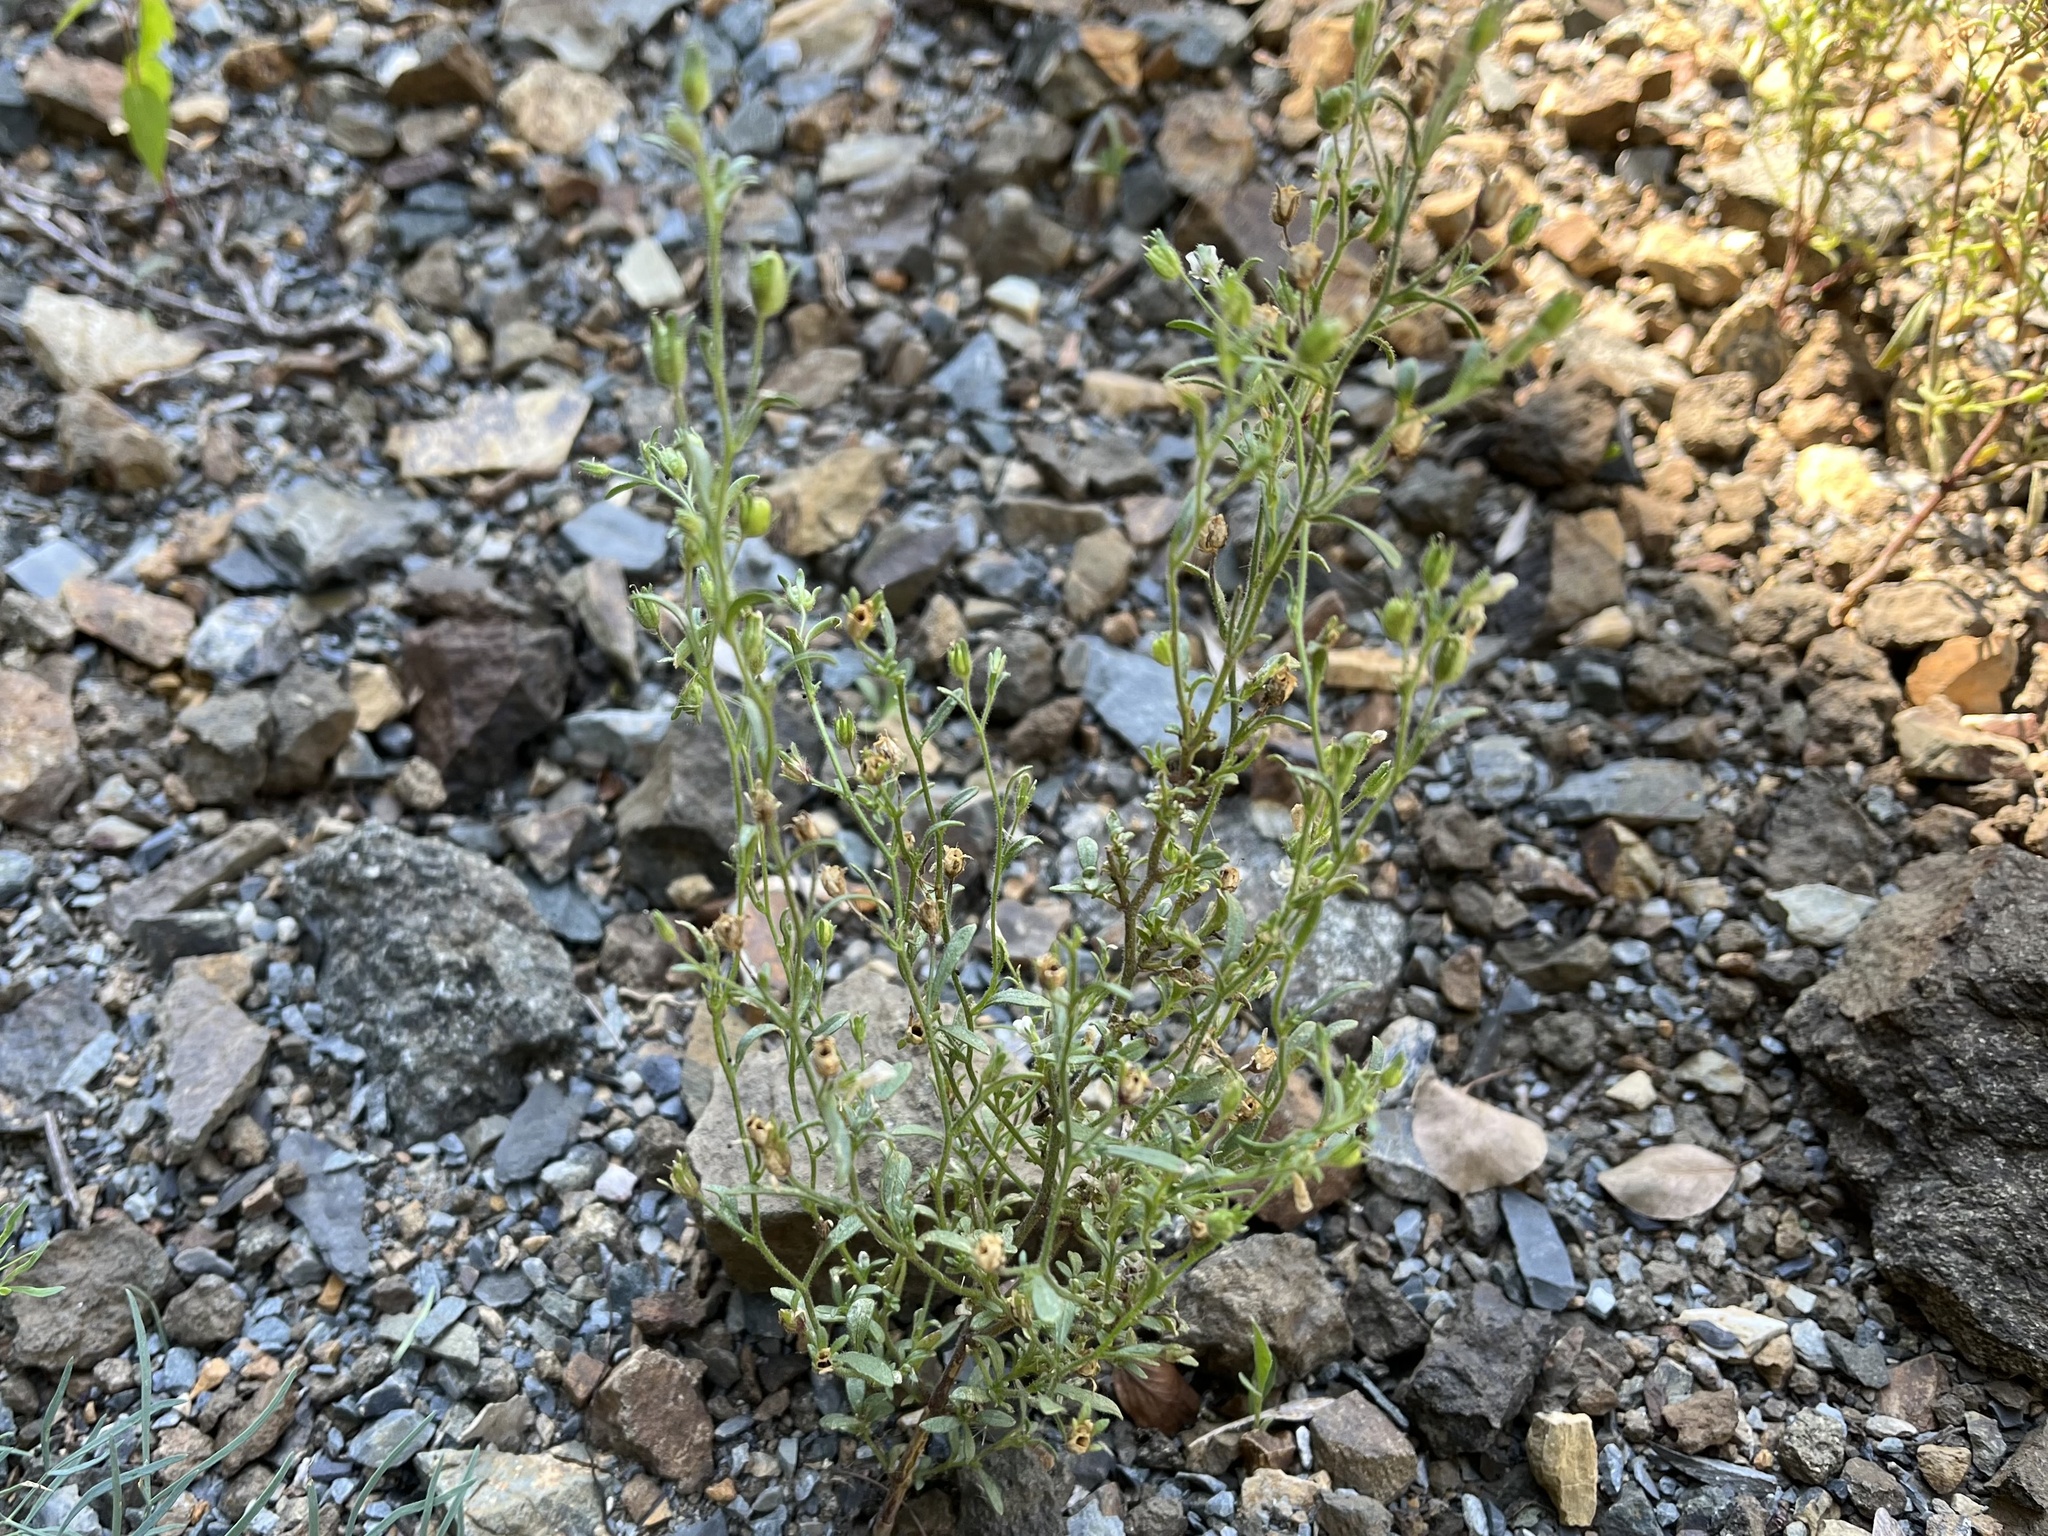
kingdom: Plantae
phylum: Tracheophyta
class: Magnoliopsida
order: Lamiales
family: Plantaginaceae
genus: Chaenorhinum
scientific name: Chaenorhinum minus
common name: Dwarf snapdragon
